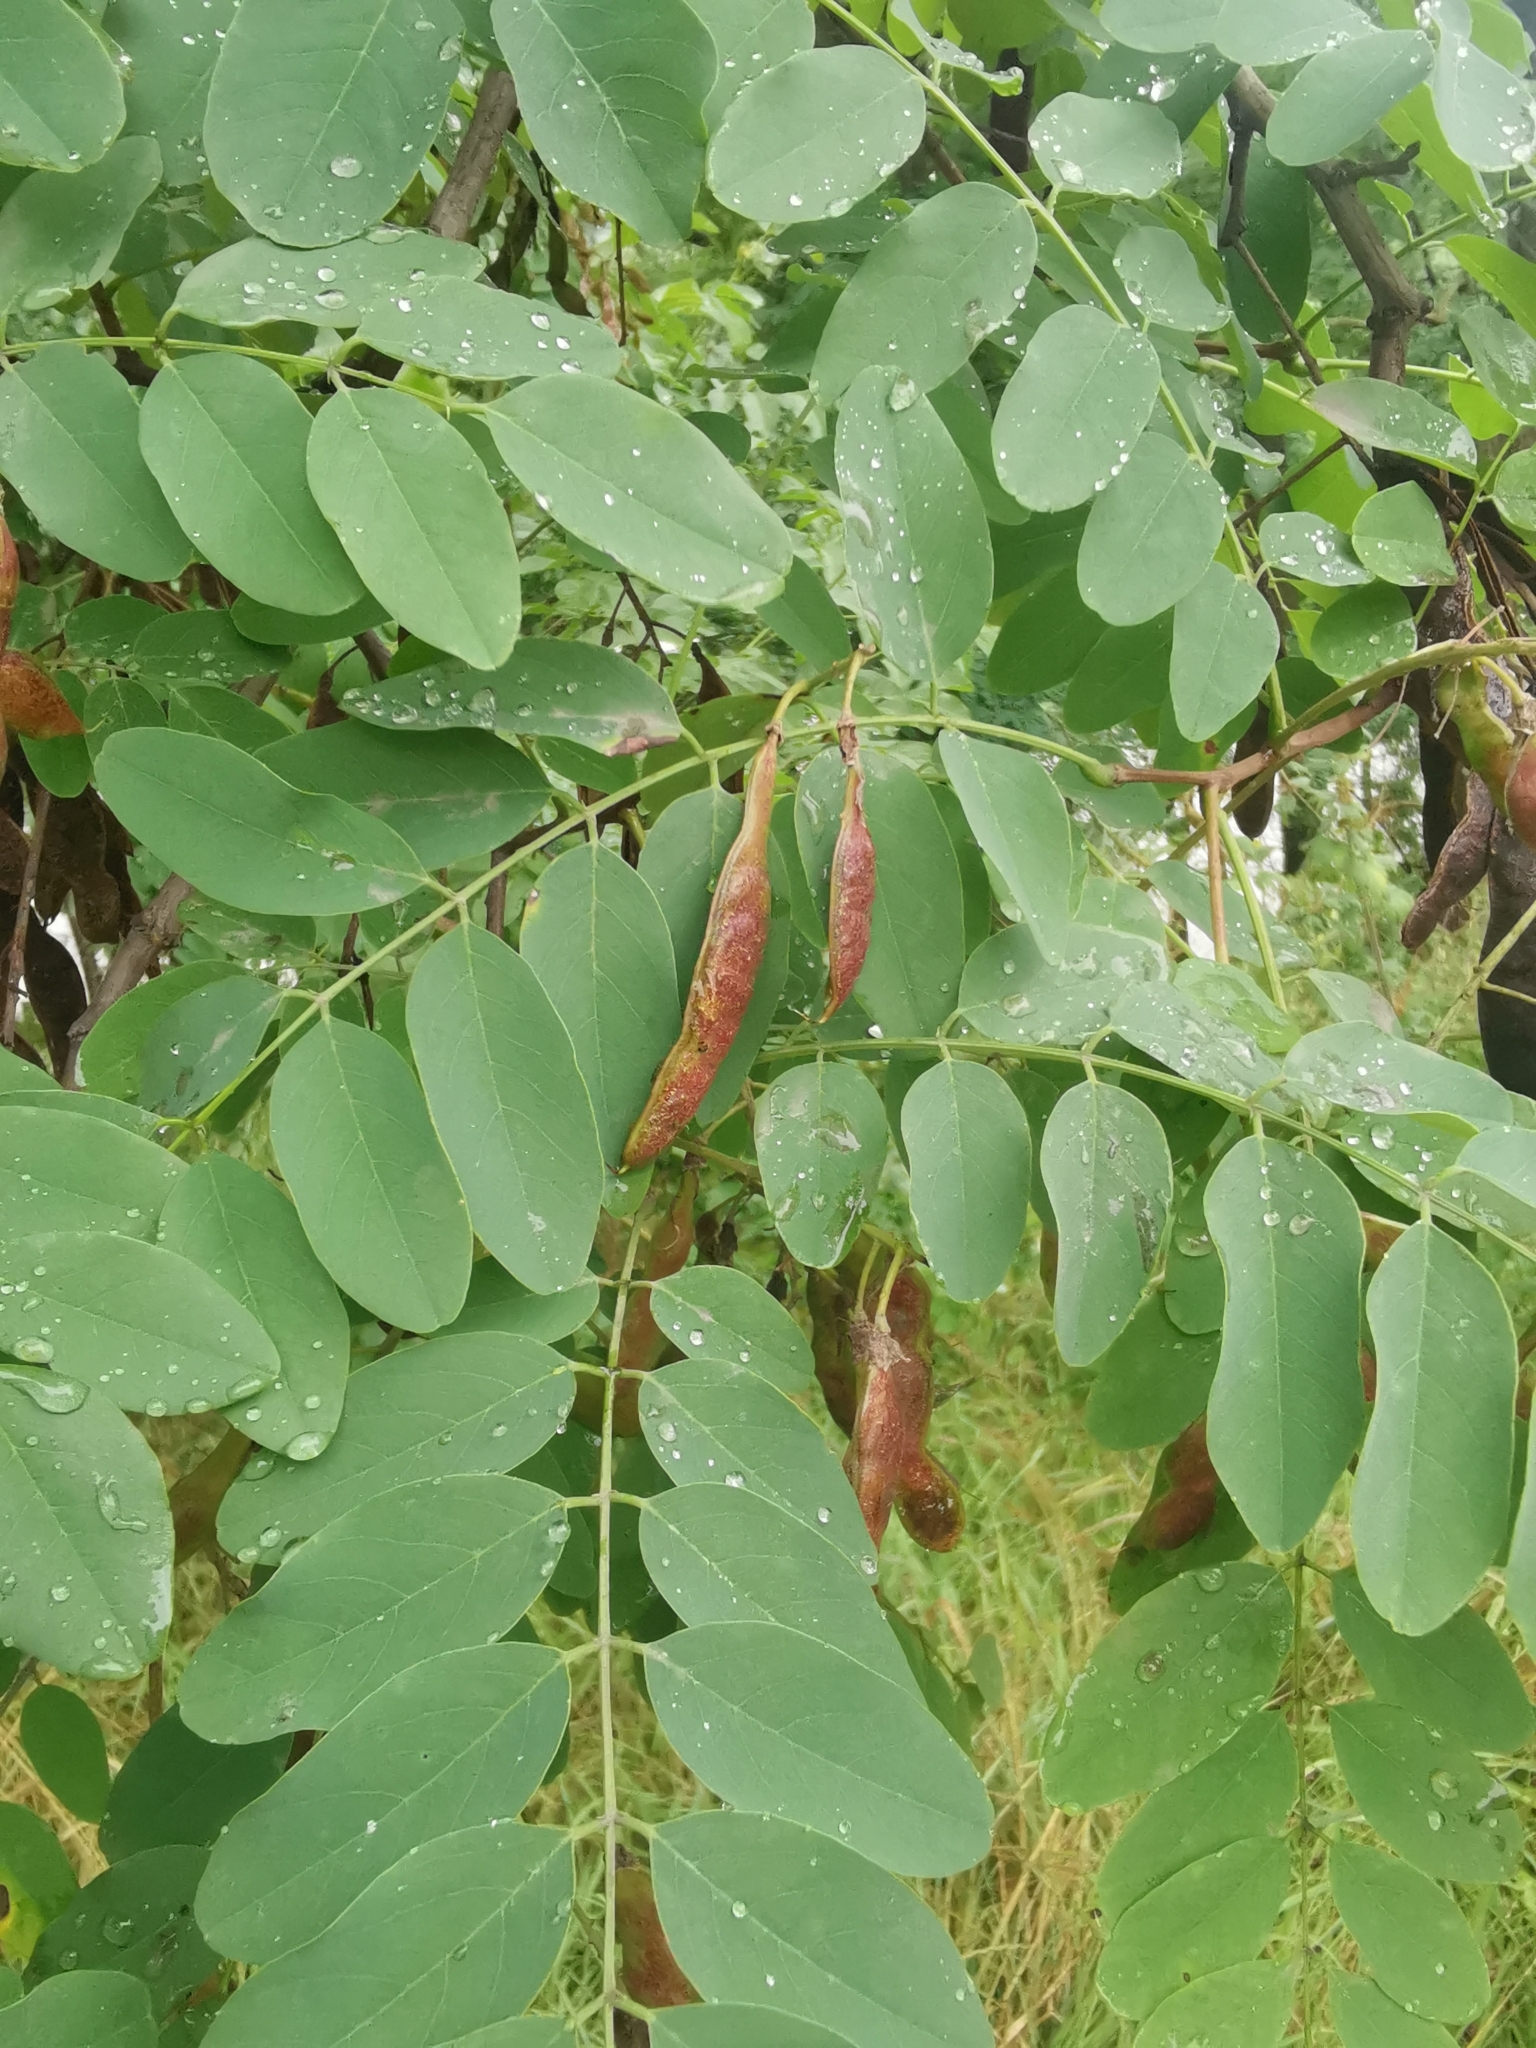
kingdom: Plantae
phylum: Tracheophyta
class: Magnoliopsida
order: Fabales
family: Fabaceae
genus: Robinia
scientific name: Robinia pseudoacacia
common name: Black locust
